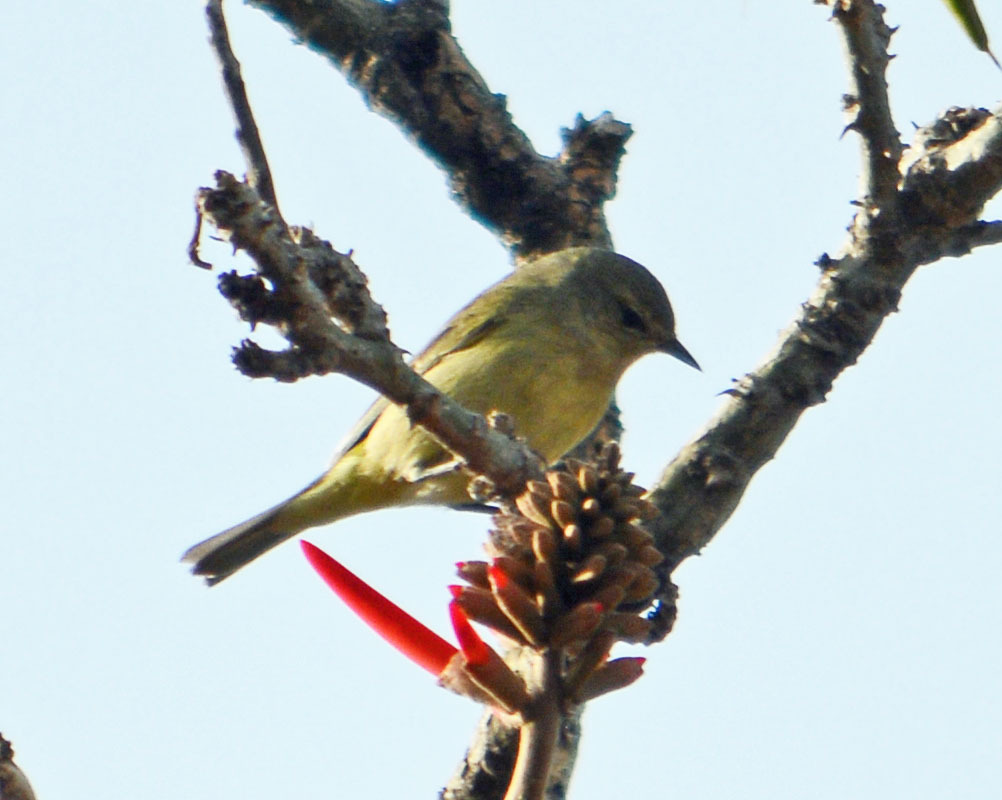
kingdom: Animalia
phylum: Chordata
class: Aves
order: Passeriformes
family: Parulidae
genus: Leiothlypis
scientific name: Leiothlypis celata
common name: Orange-crowned warbler
